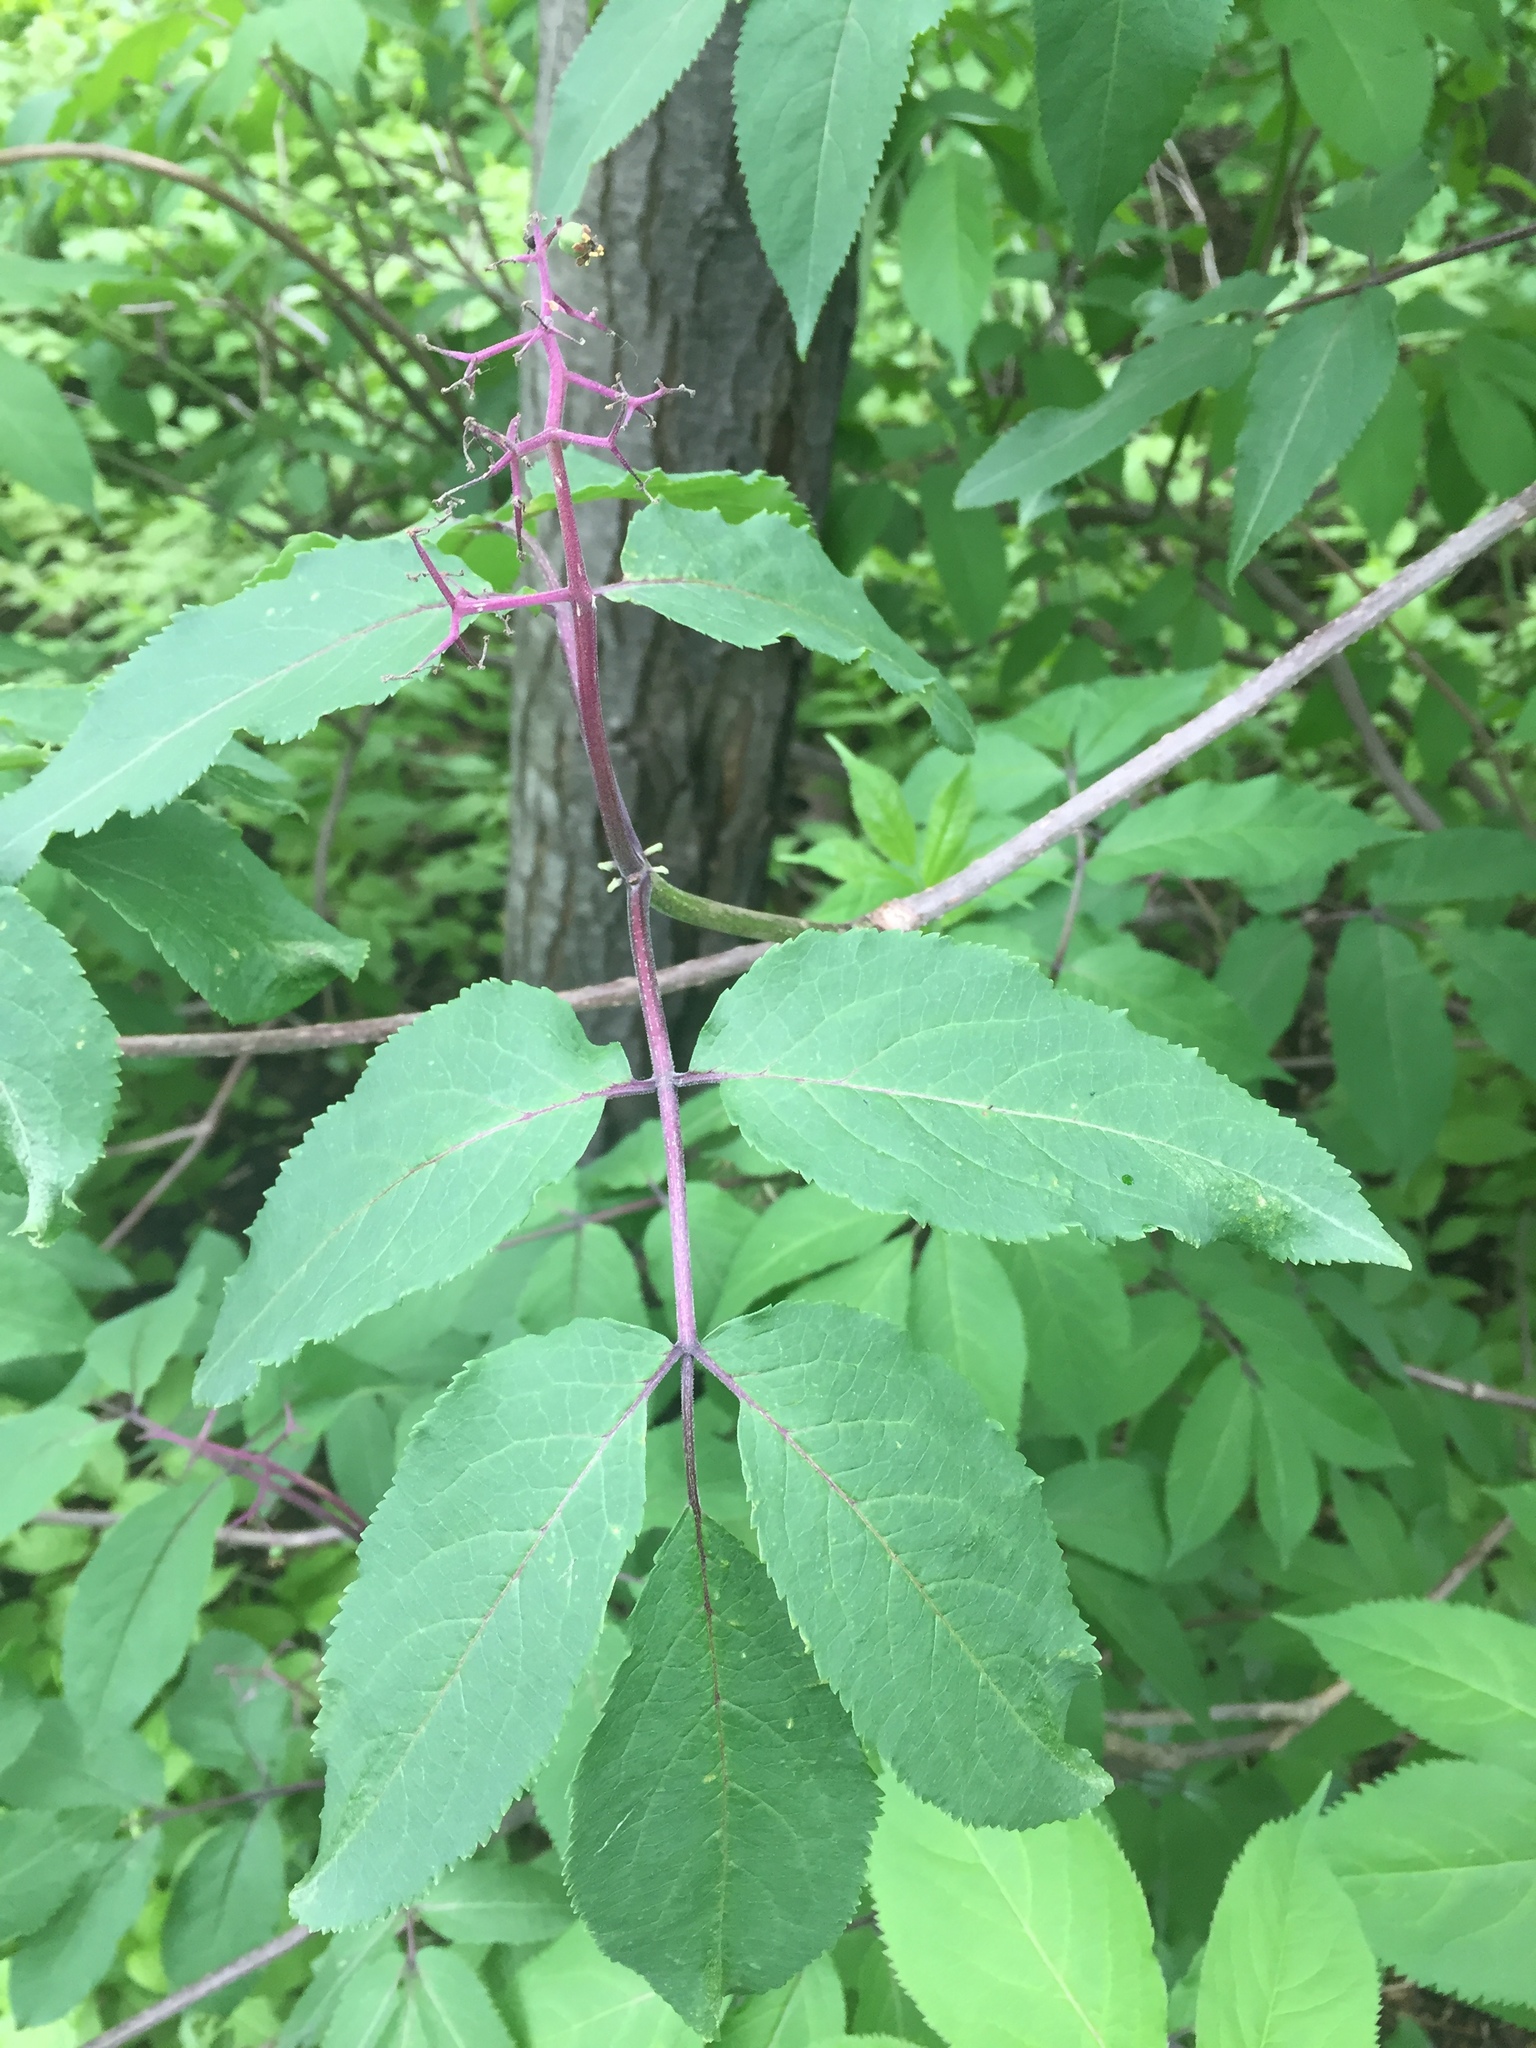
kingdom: Plantae
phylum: Tracheophyta
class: Magnoliopsida
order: Dipsacales
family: Viburnaceae
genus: Sambucus
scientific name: Sambucus racemosa
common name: Red-berried elder
